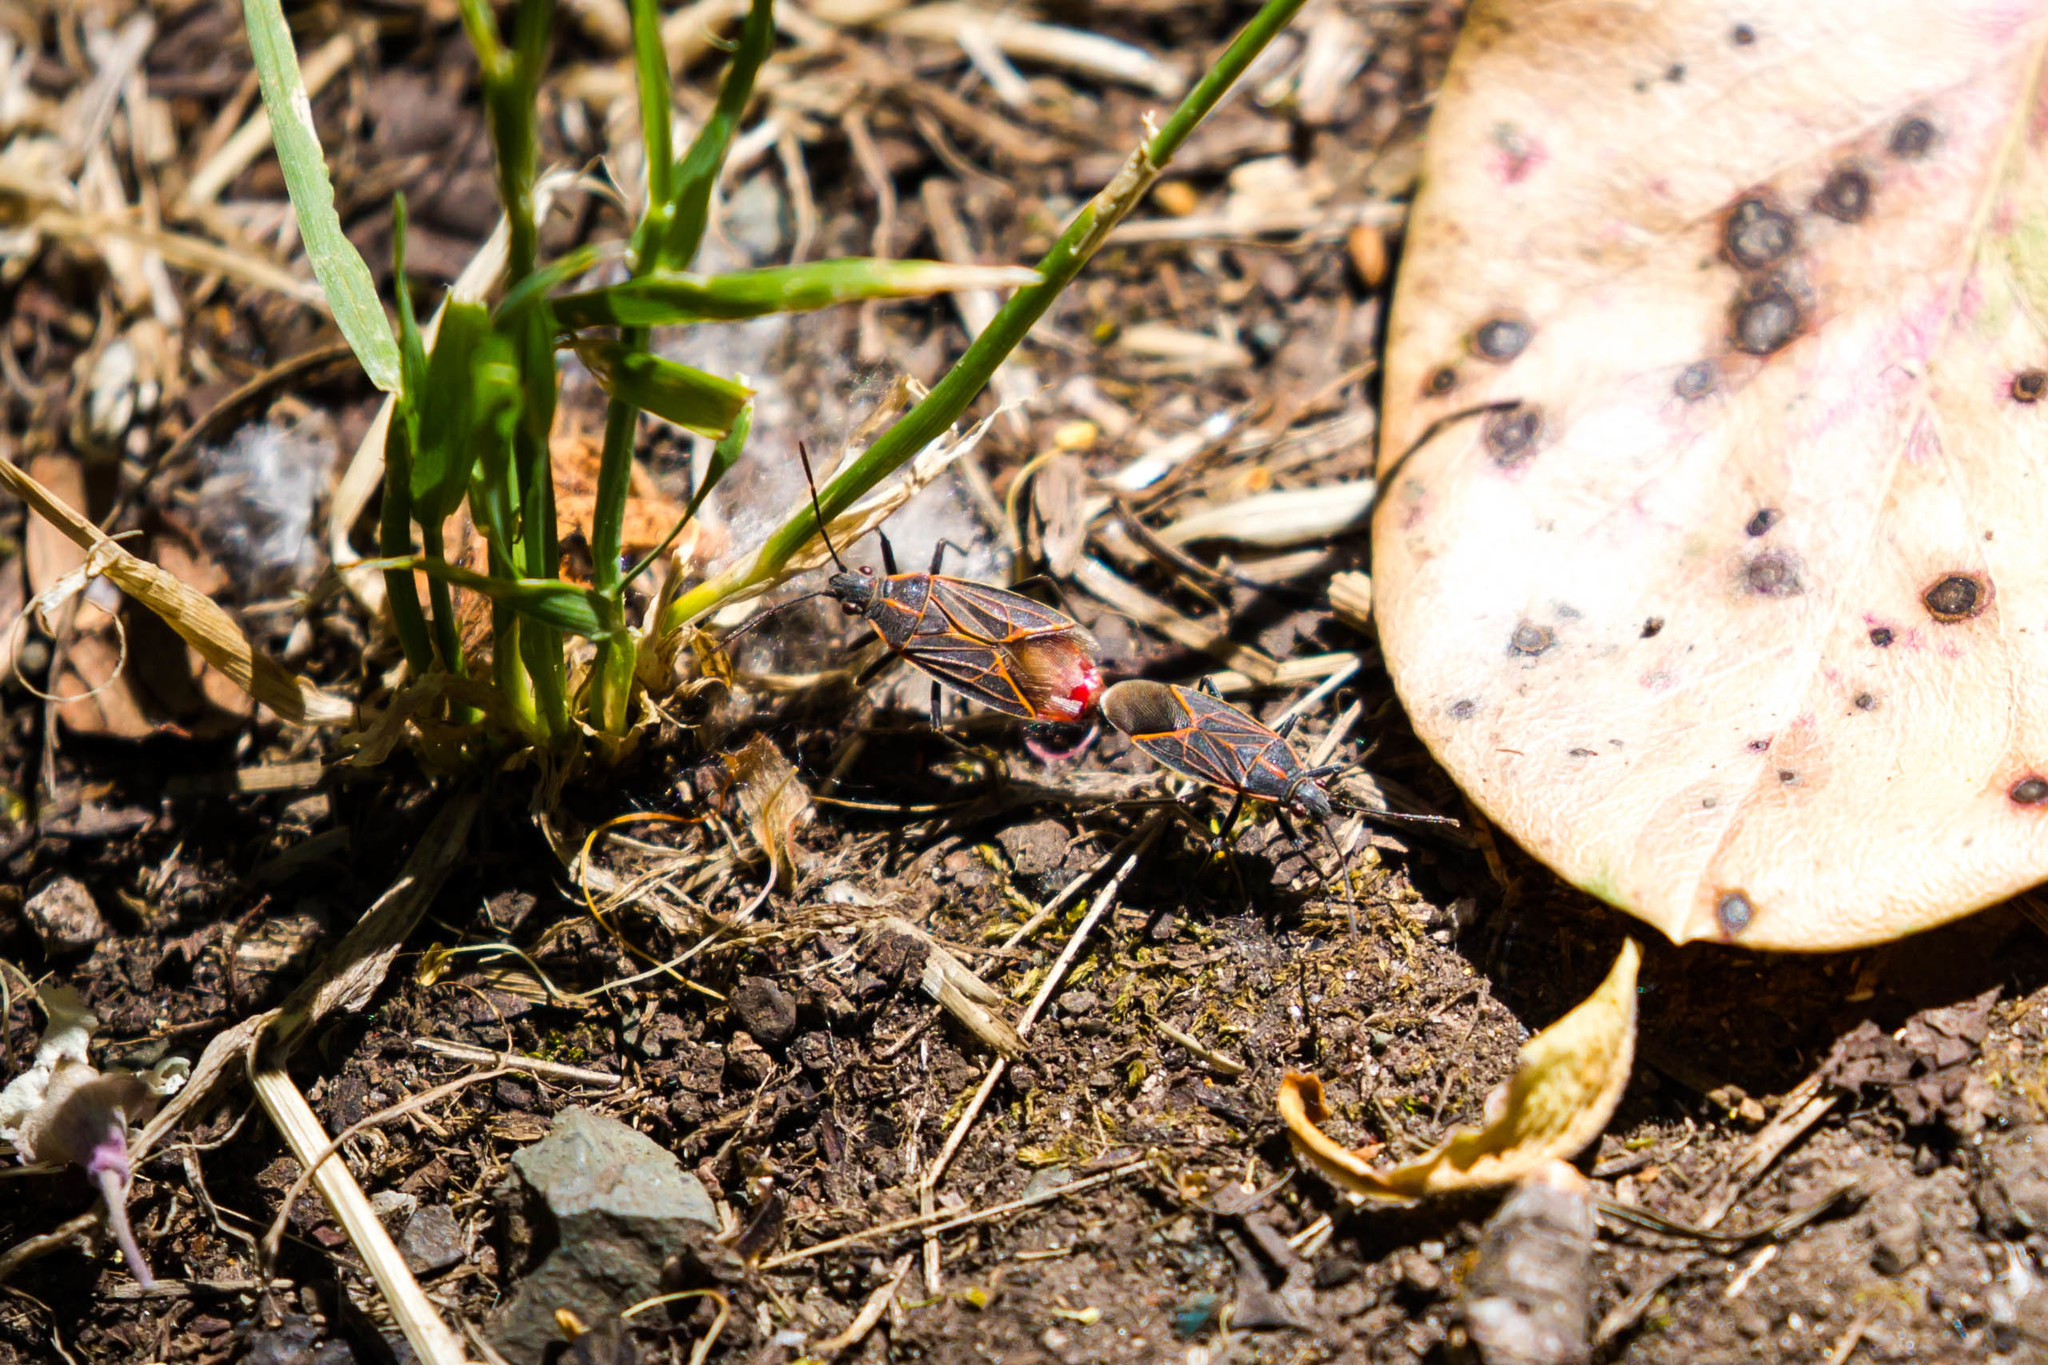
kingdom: Animalia
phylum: Arthropoda
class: Insecta
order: Hemiptera
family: Rhopalidae
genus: Boisea
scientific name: Boisea rubrolineata
